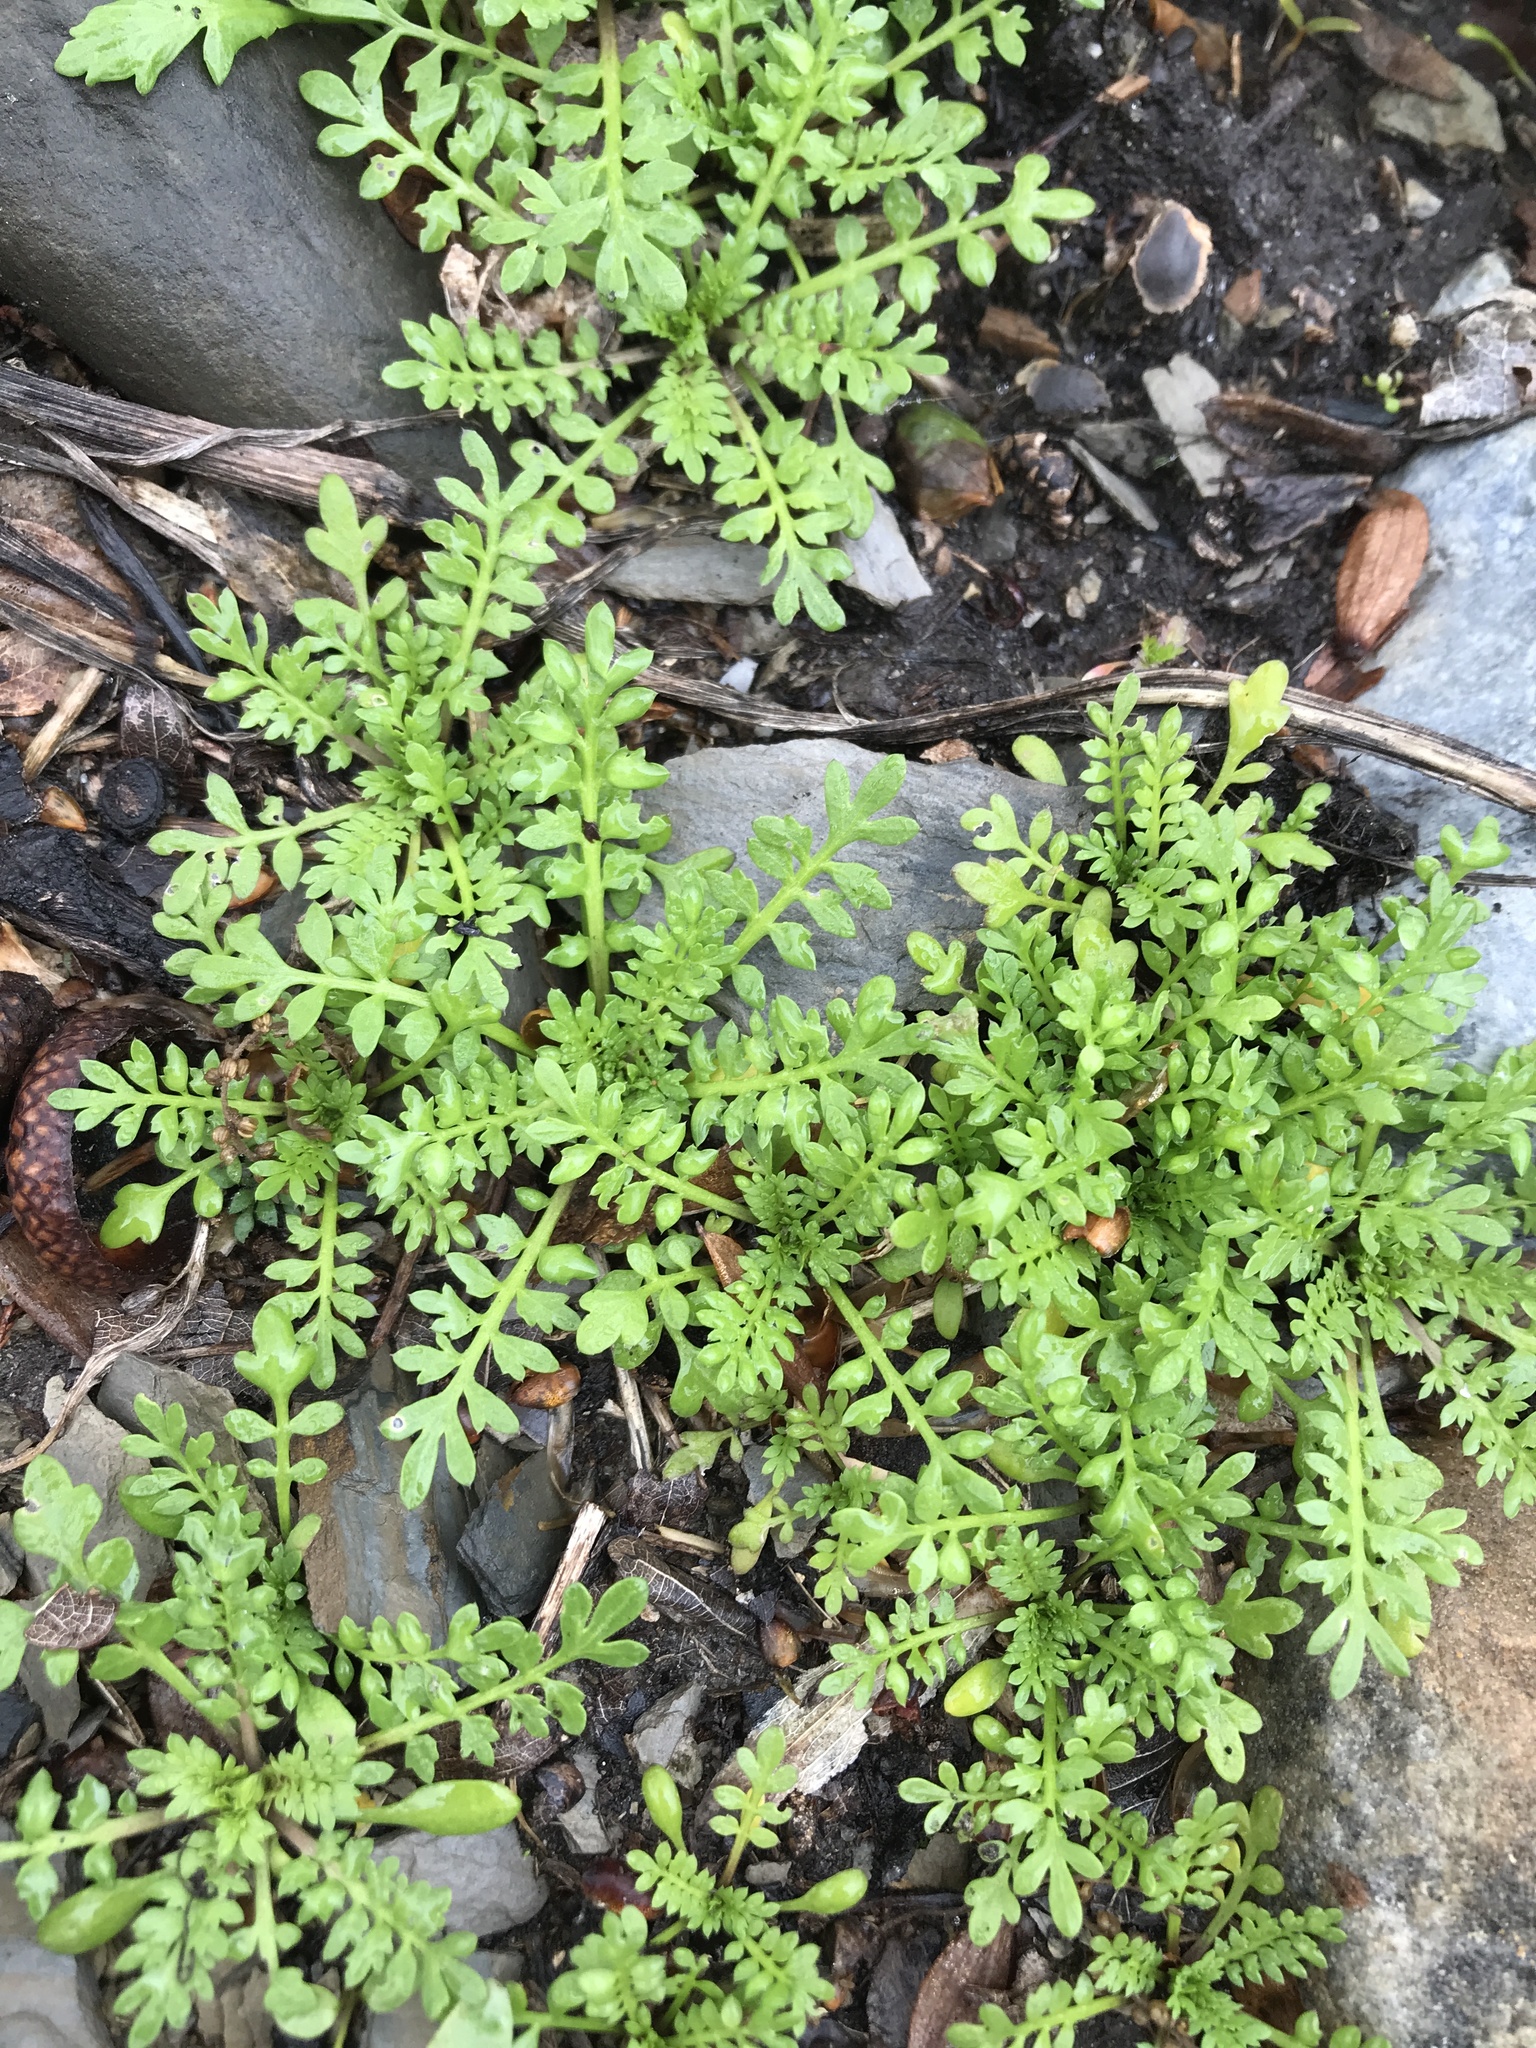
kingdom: Plantae
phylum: Tracheophyta
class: Magnoliopsida
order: Brassicales
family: Brassicaceae
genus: Lepidium
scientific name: Lepidium didymum
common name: Lesser swinecress
